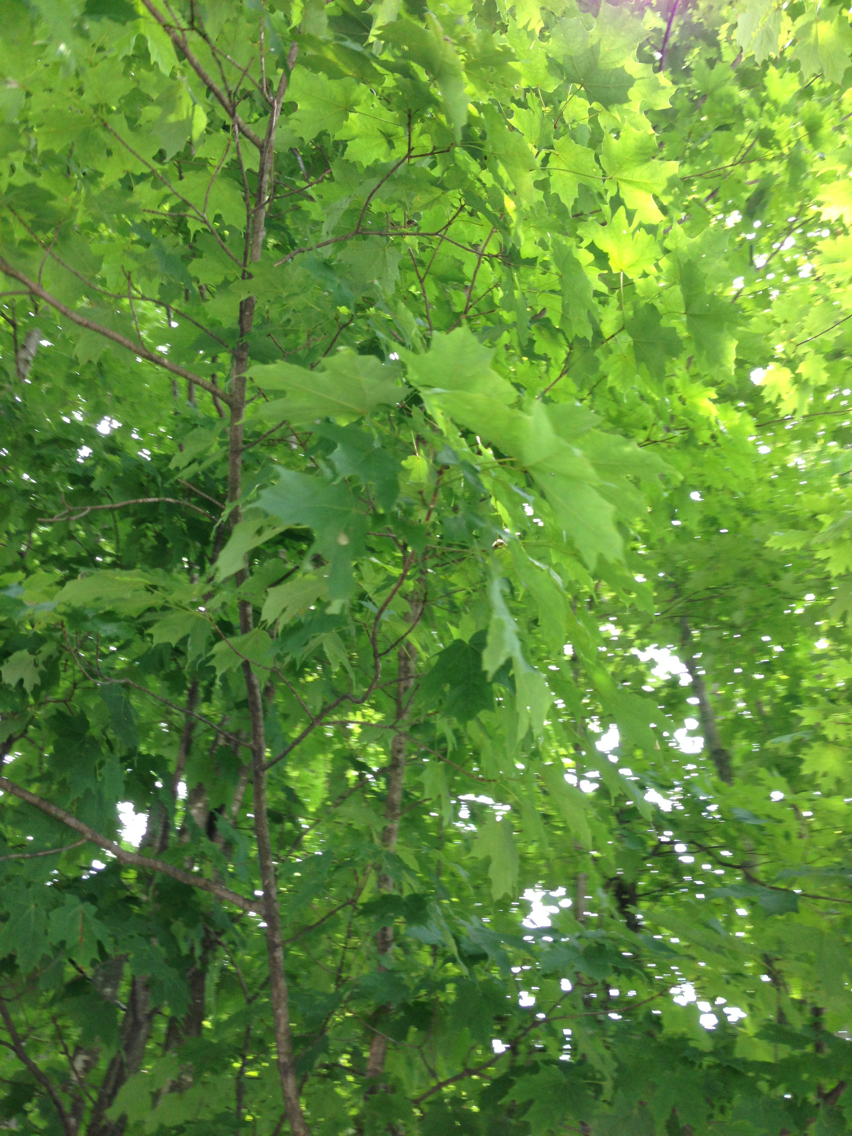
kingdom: Plantae
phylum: Tracheophyta
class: Magnoliopsida
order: Sapindales
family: Sapindaceae
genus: Acer
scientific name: Acer saccharum
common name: Sugar maple
